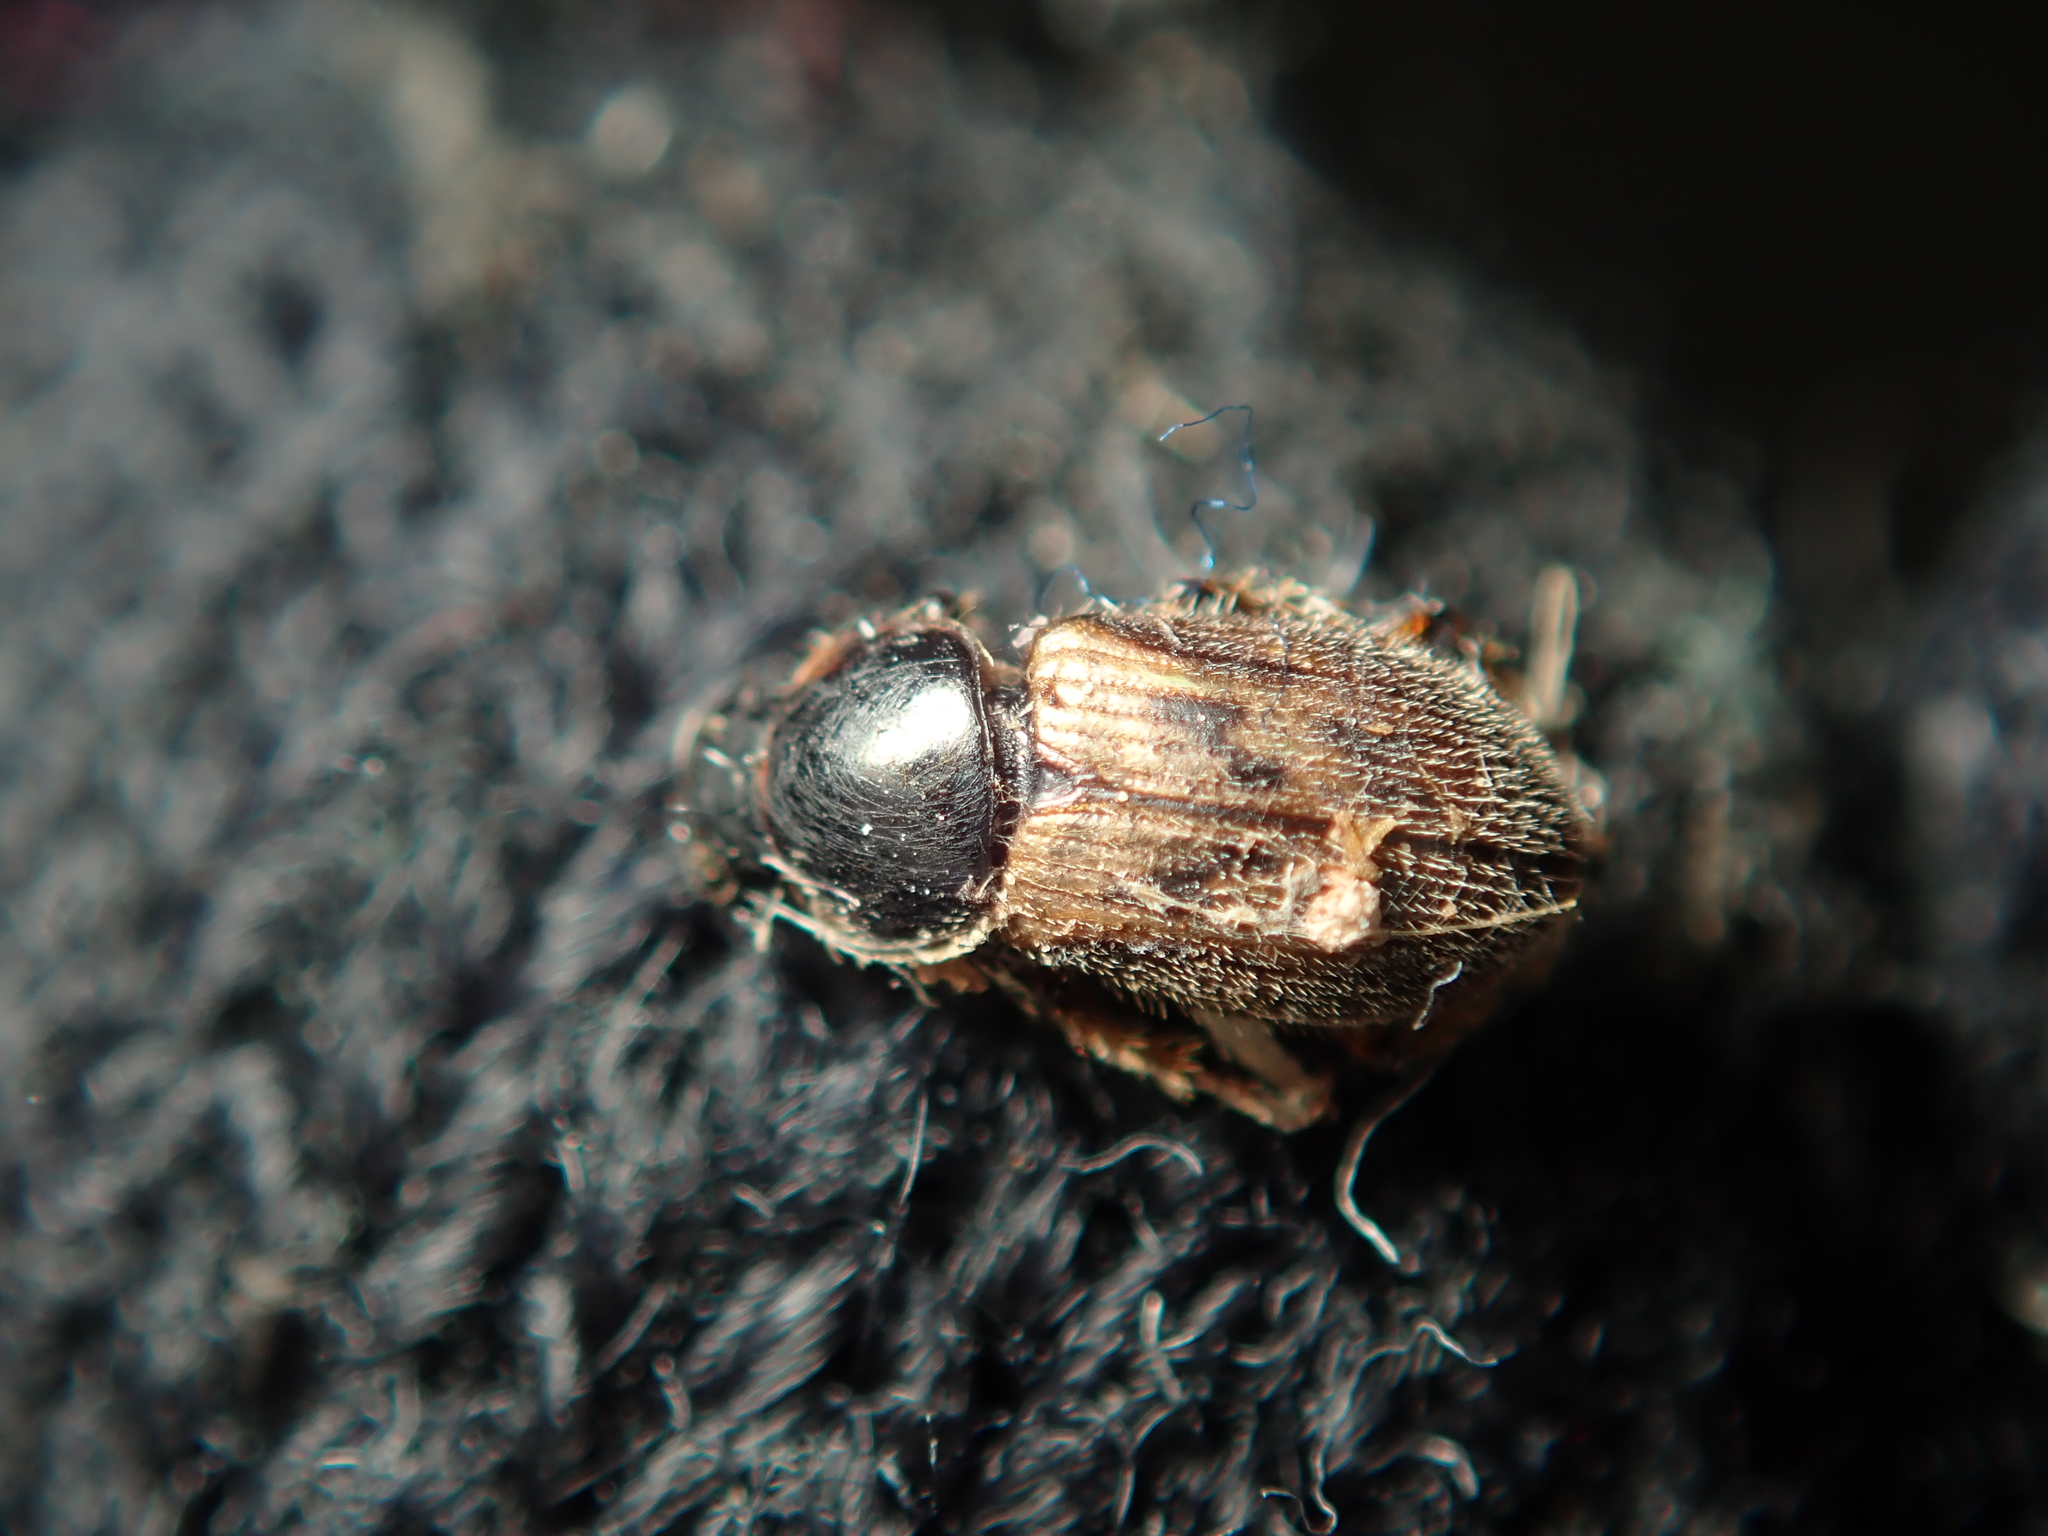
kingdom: Animalia
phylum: Arthropoda
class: Insecta
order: Coleoptera
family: Scarabaeidae
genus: Nimbus
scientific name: Nimbus contaminatus
